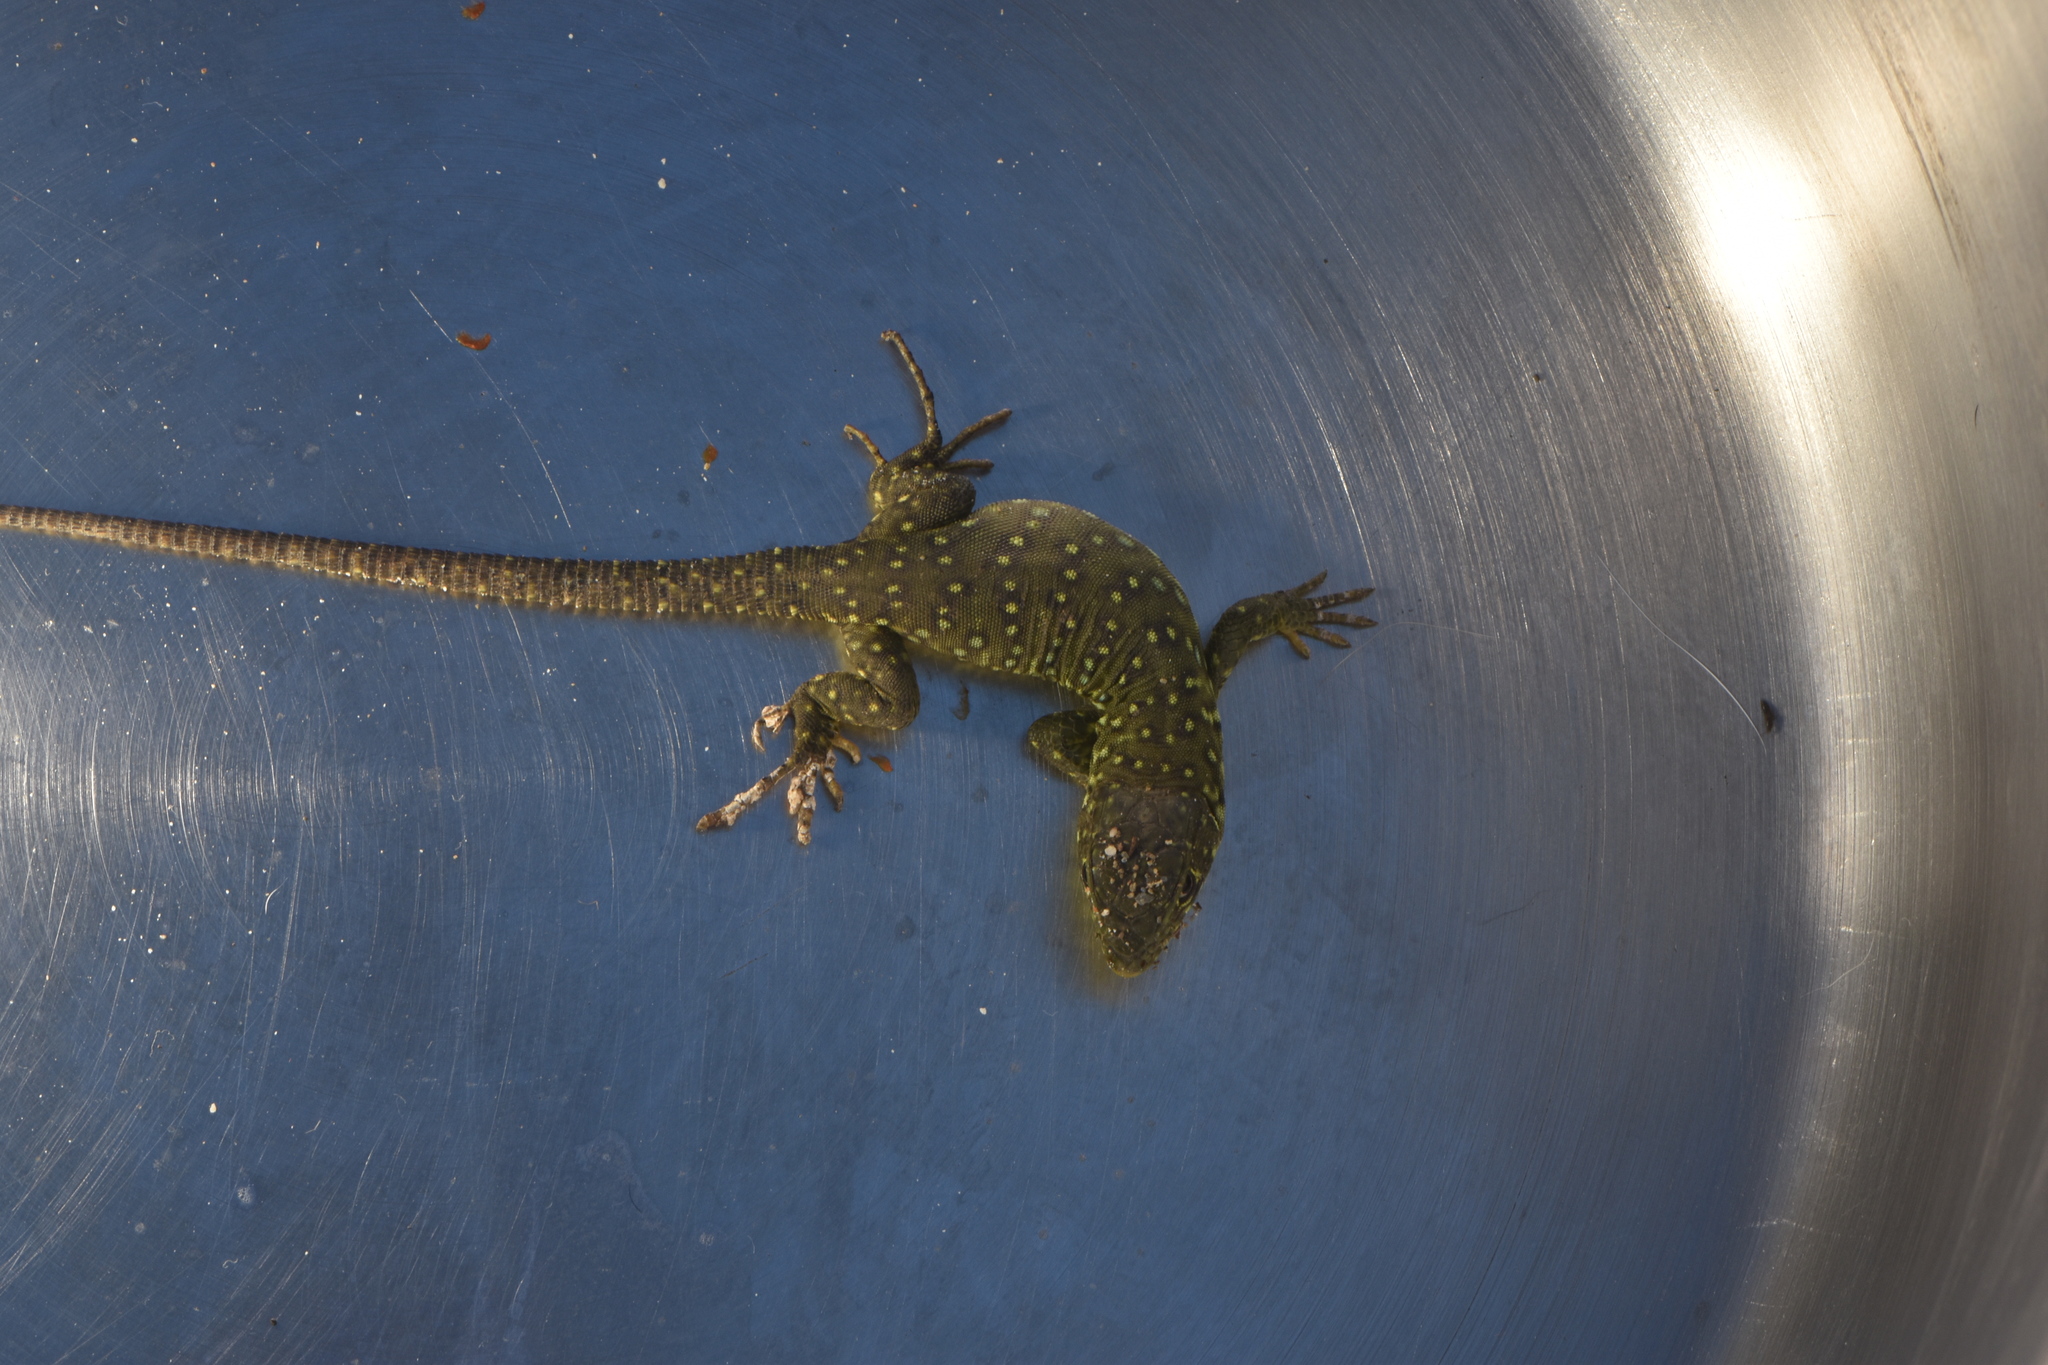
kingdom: Animalia
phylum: Chordata
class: Squamata
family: Lacertidae
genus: Timon
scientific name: Timon lepidus
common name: Ocellated lizard
